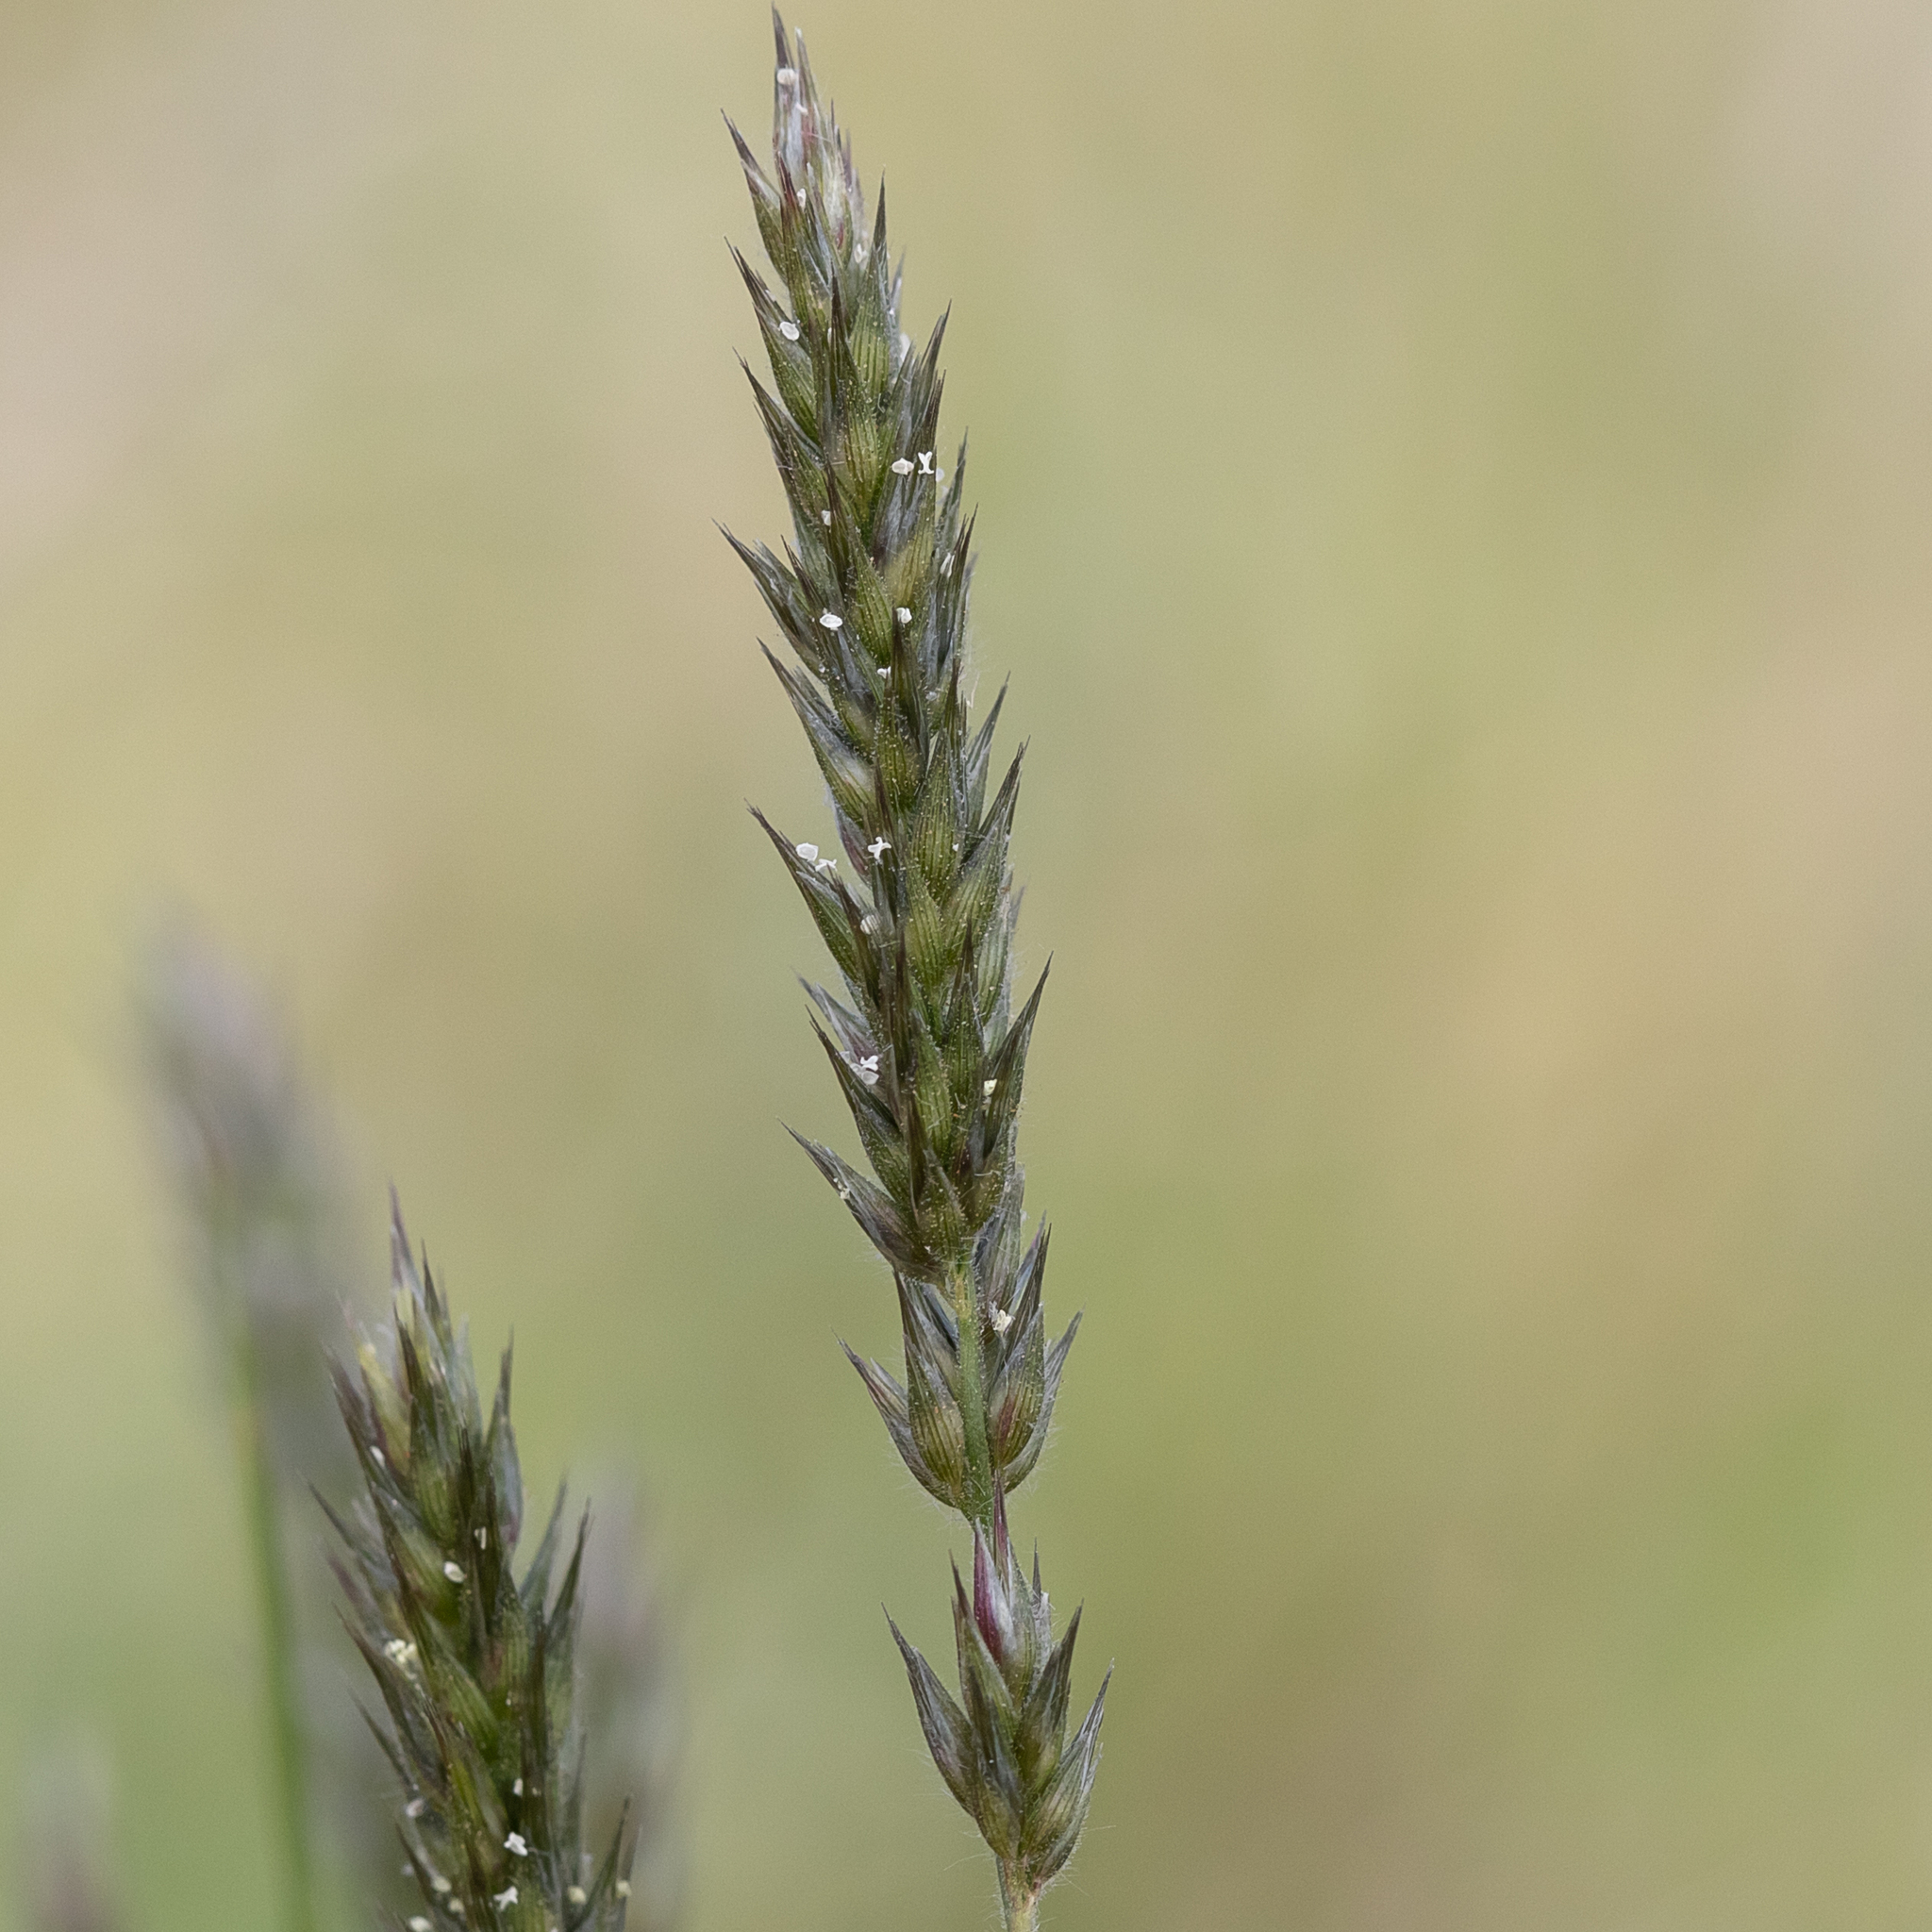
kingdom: Plantae
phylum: Tracheophyta
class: Liliopsida
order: Poales
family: Poaceae
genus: Enneapogon
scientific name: Enneapogon polyphyllus
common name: Leafy nineawn
